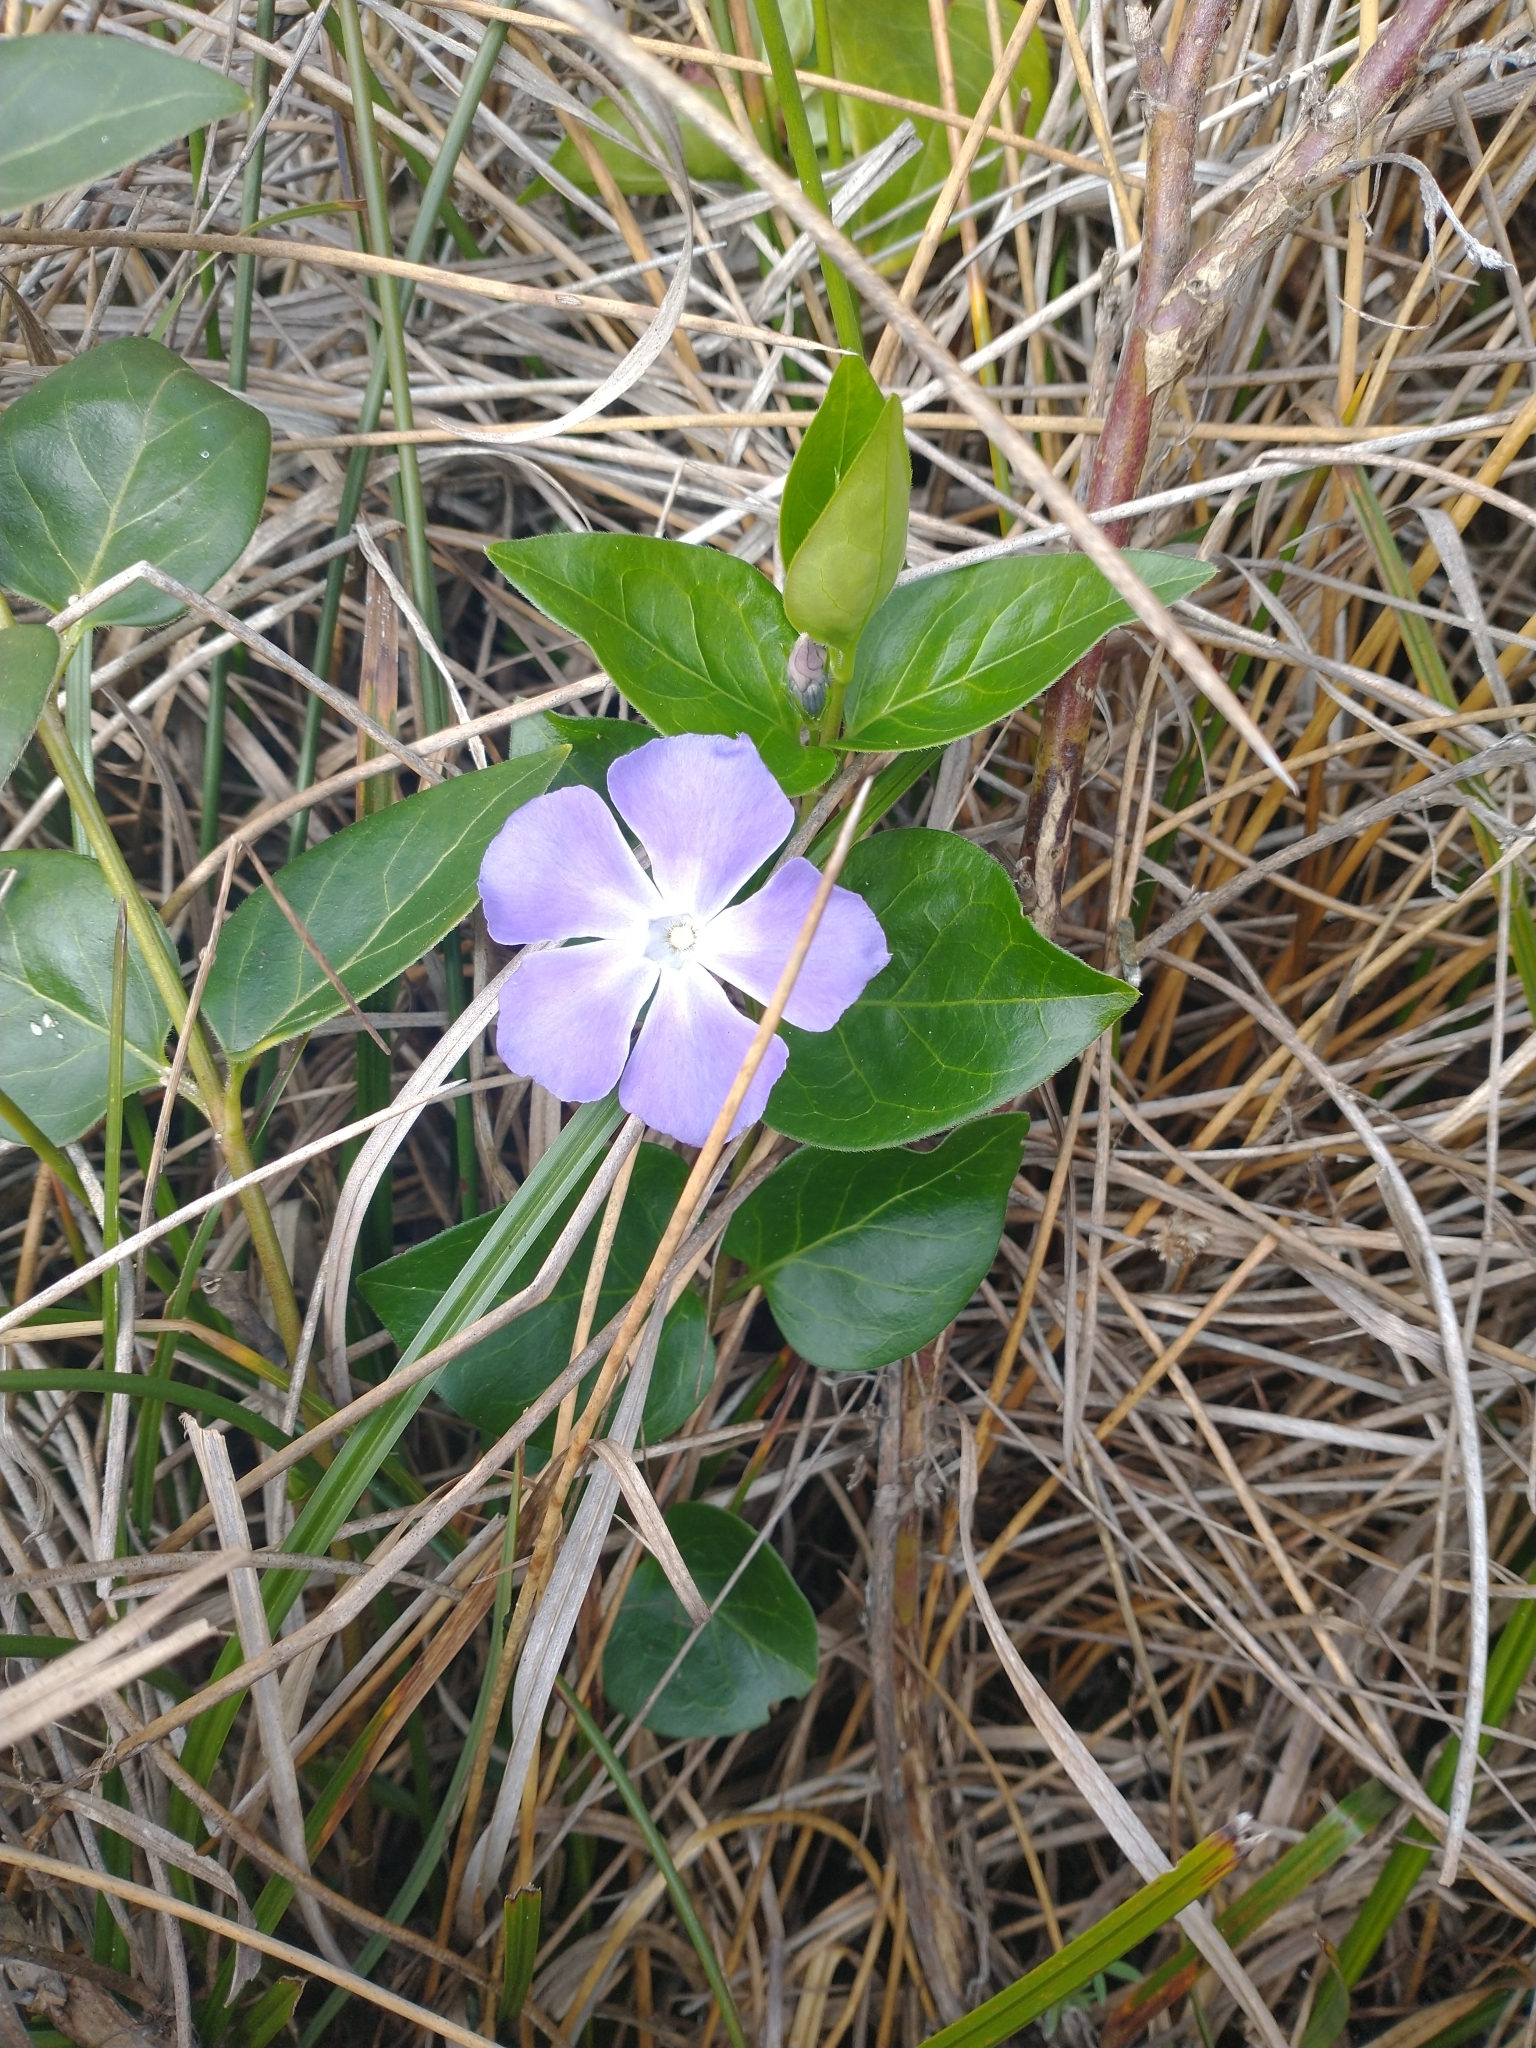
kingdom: Plantae
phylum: Tracheophyta
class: Magnoliopsida
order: Gentianales
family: Apocynaceae
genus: Vinca
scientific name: Vinca major
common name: Greater periwinkle
